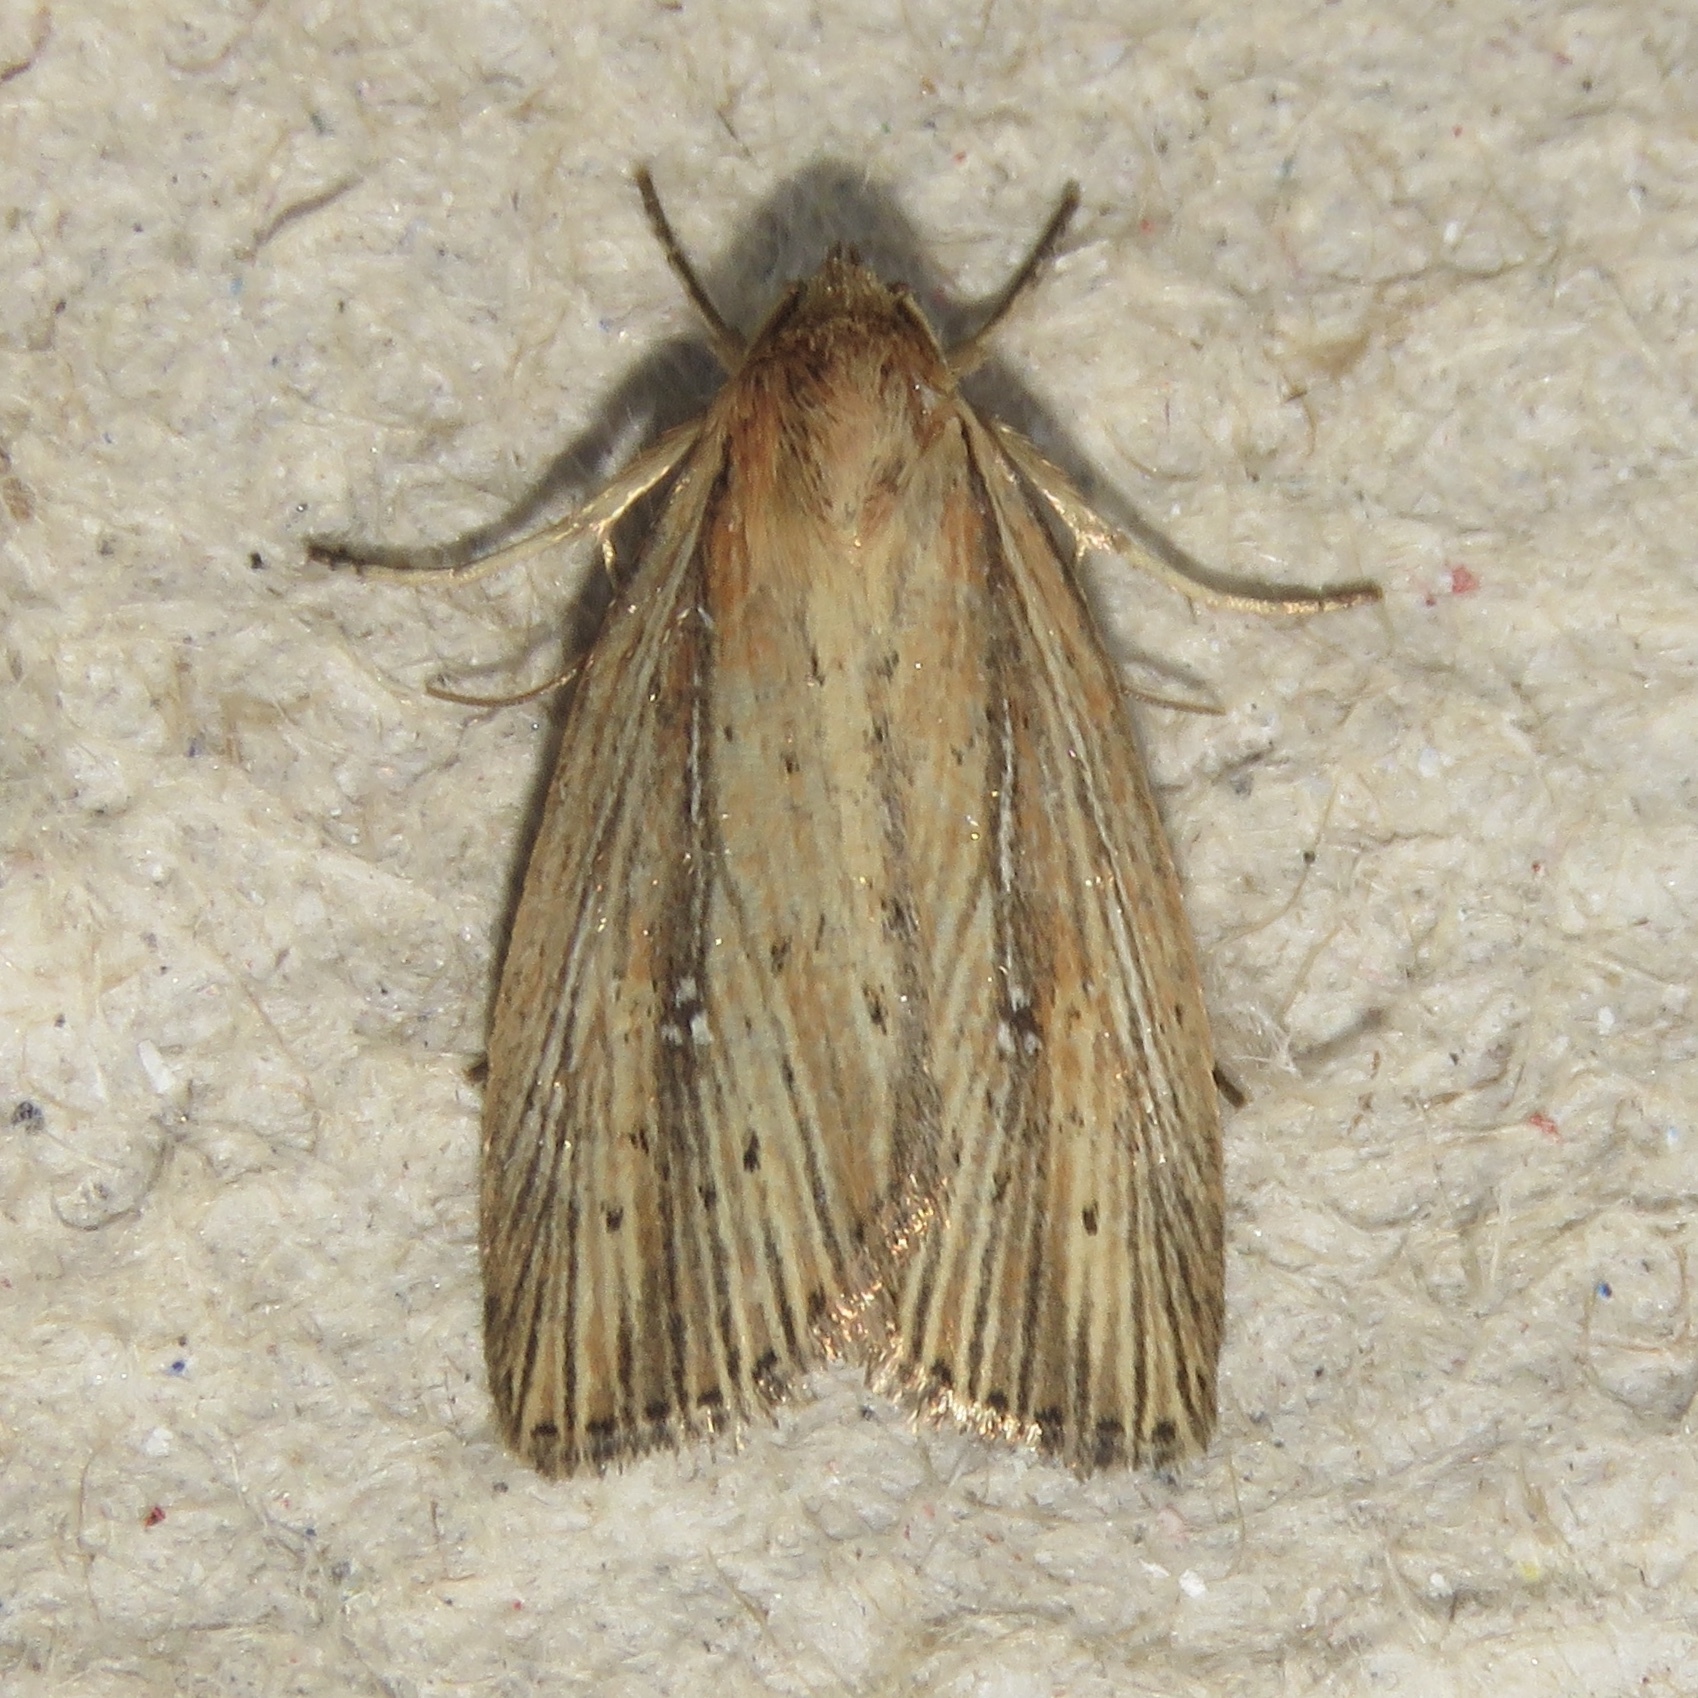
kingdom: Animalia
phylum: Arthropoda
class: Insecta
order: Lepidoptera
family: Noctuidae
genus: Photedes
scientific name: Photedes defecta
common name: Narrow-winged borer moth
